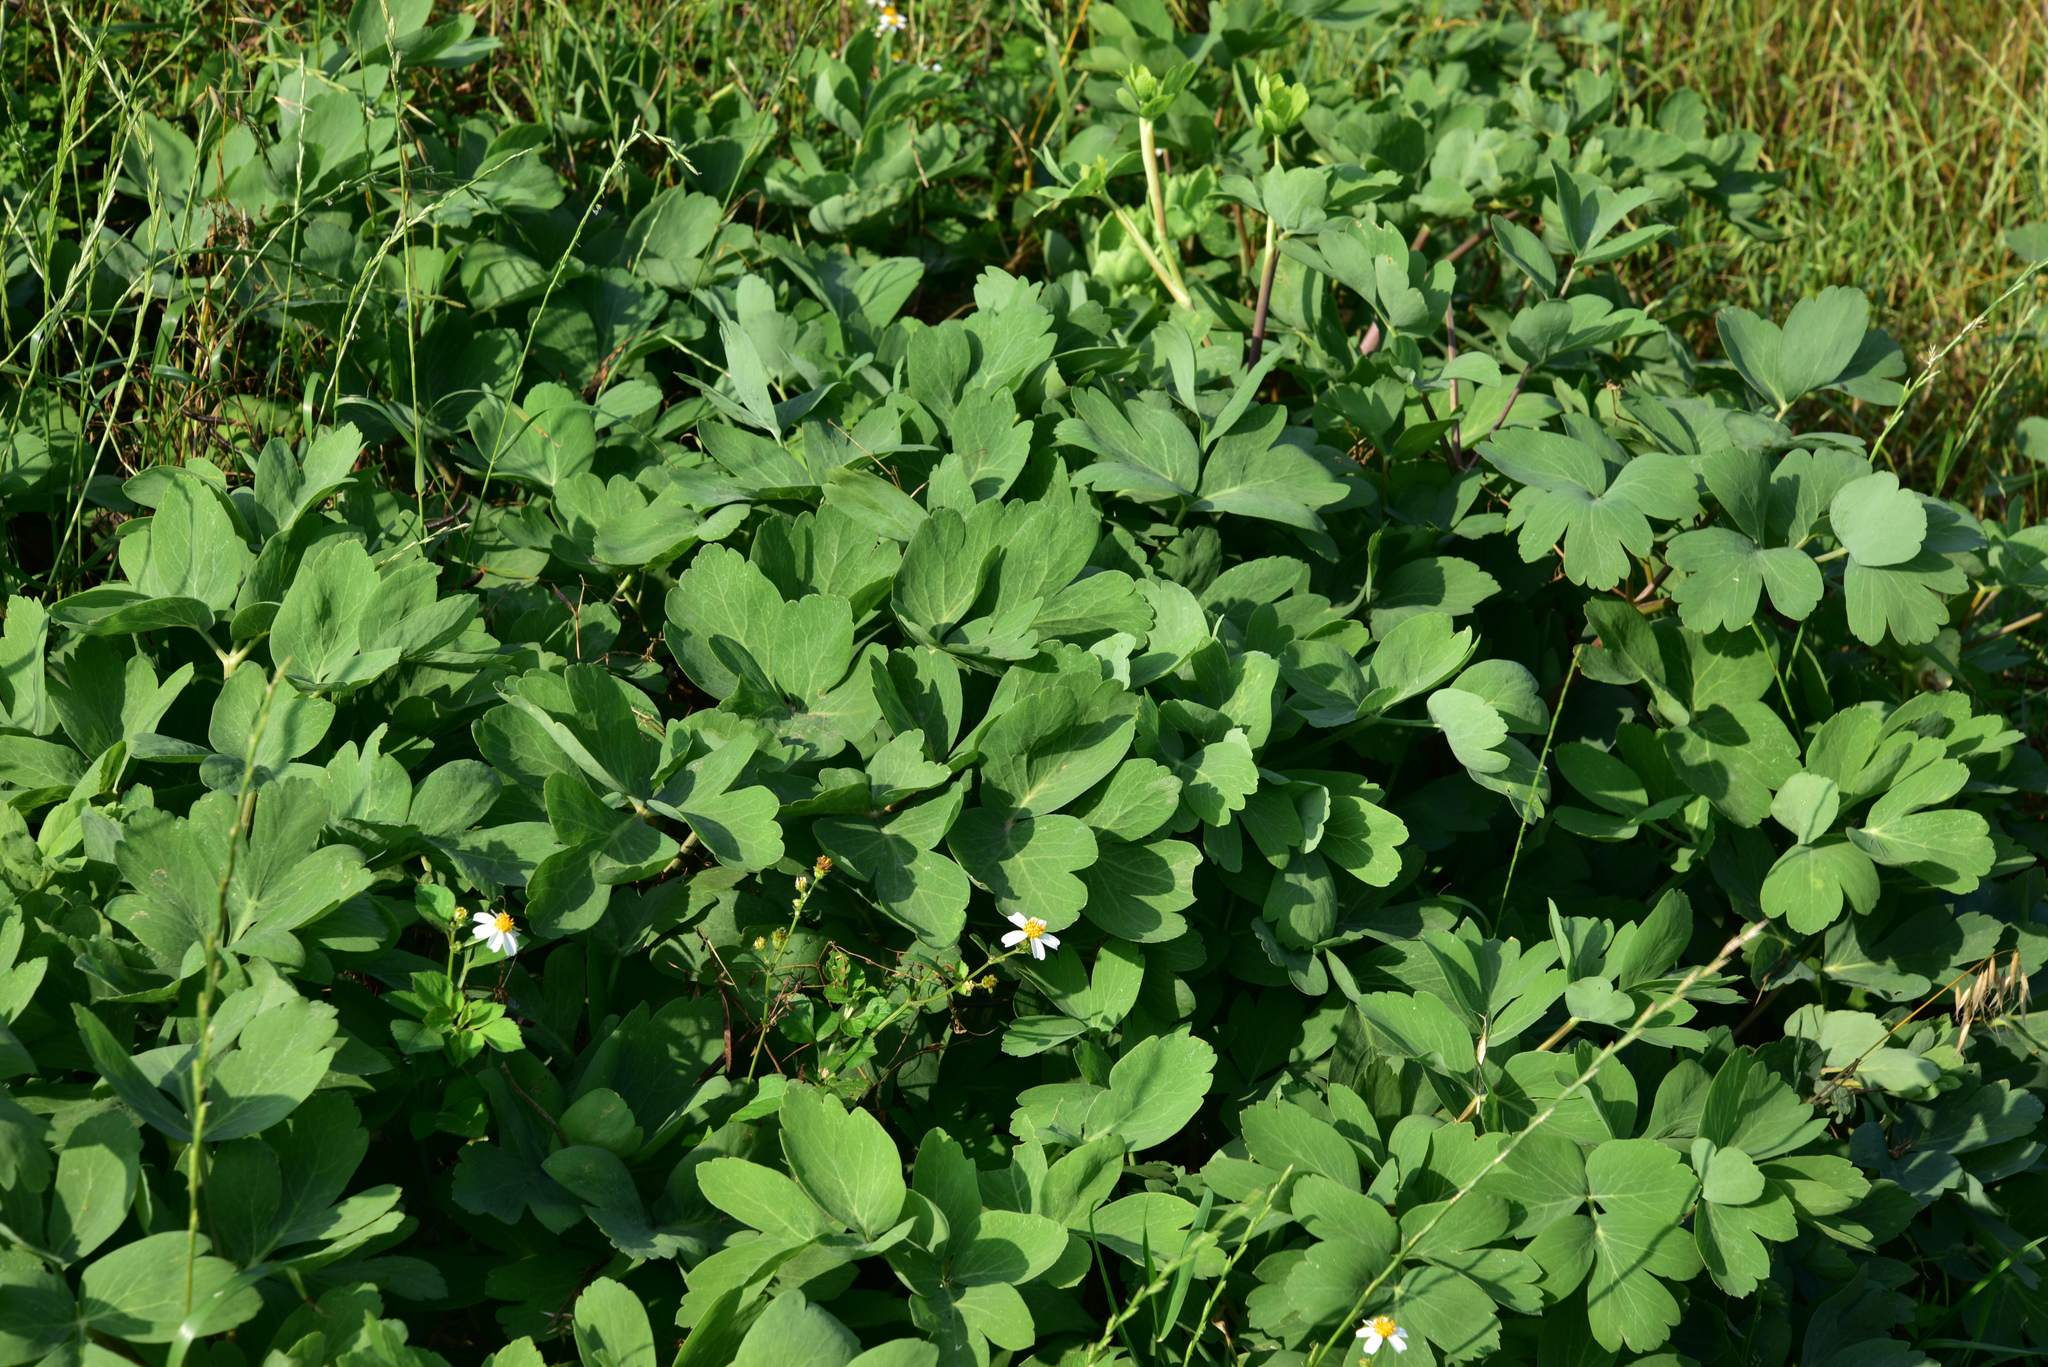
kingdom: Plantae
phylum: Tracheophyta
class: Magnoliopsida
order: Apiales
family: Apiaceae
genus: Peucedanum
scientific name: Peucedanum japonicum
